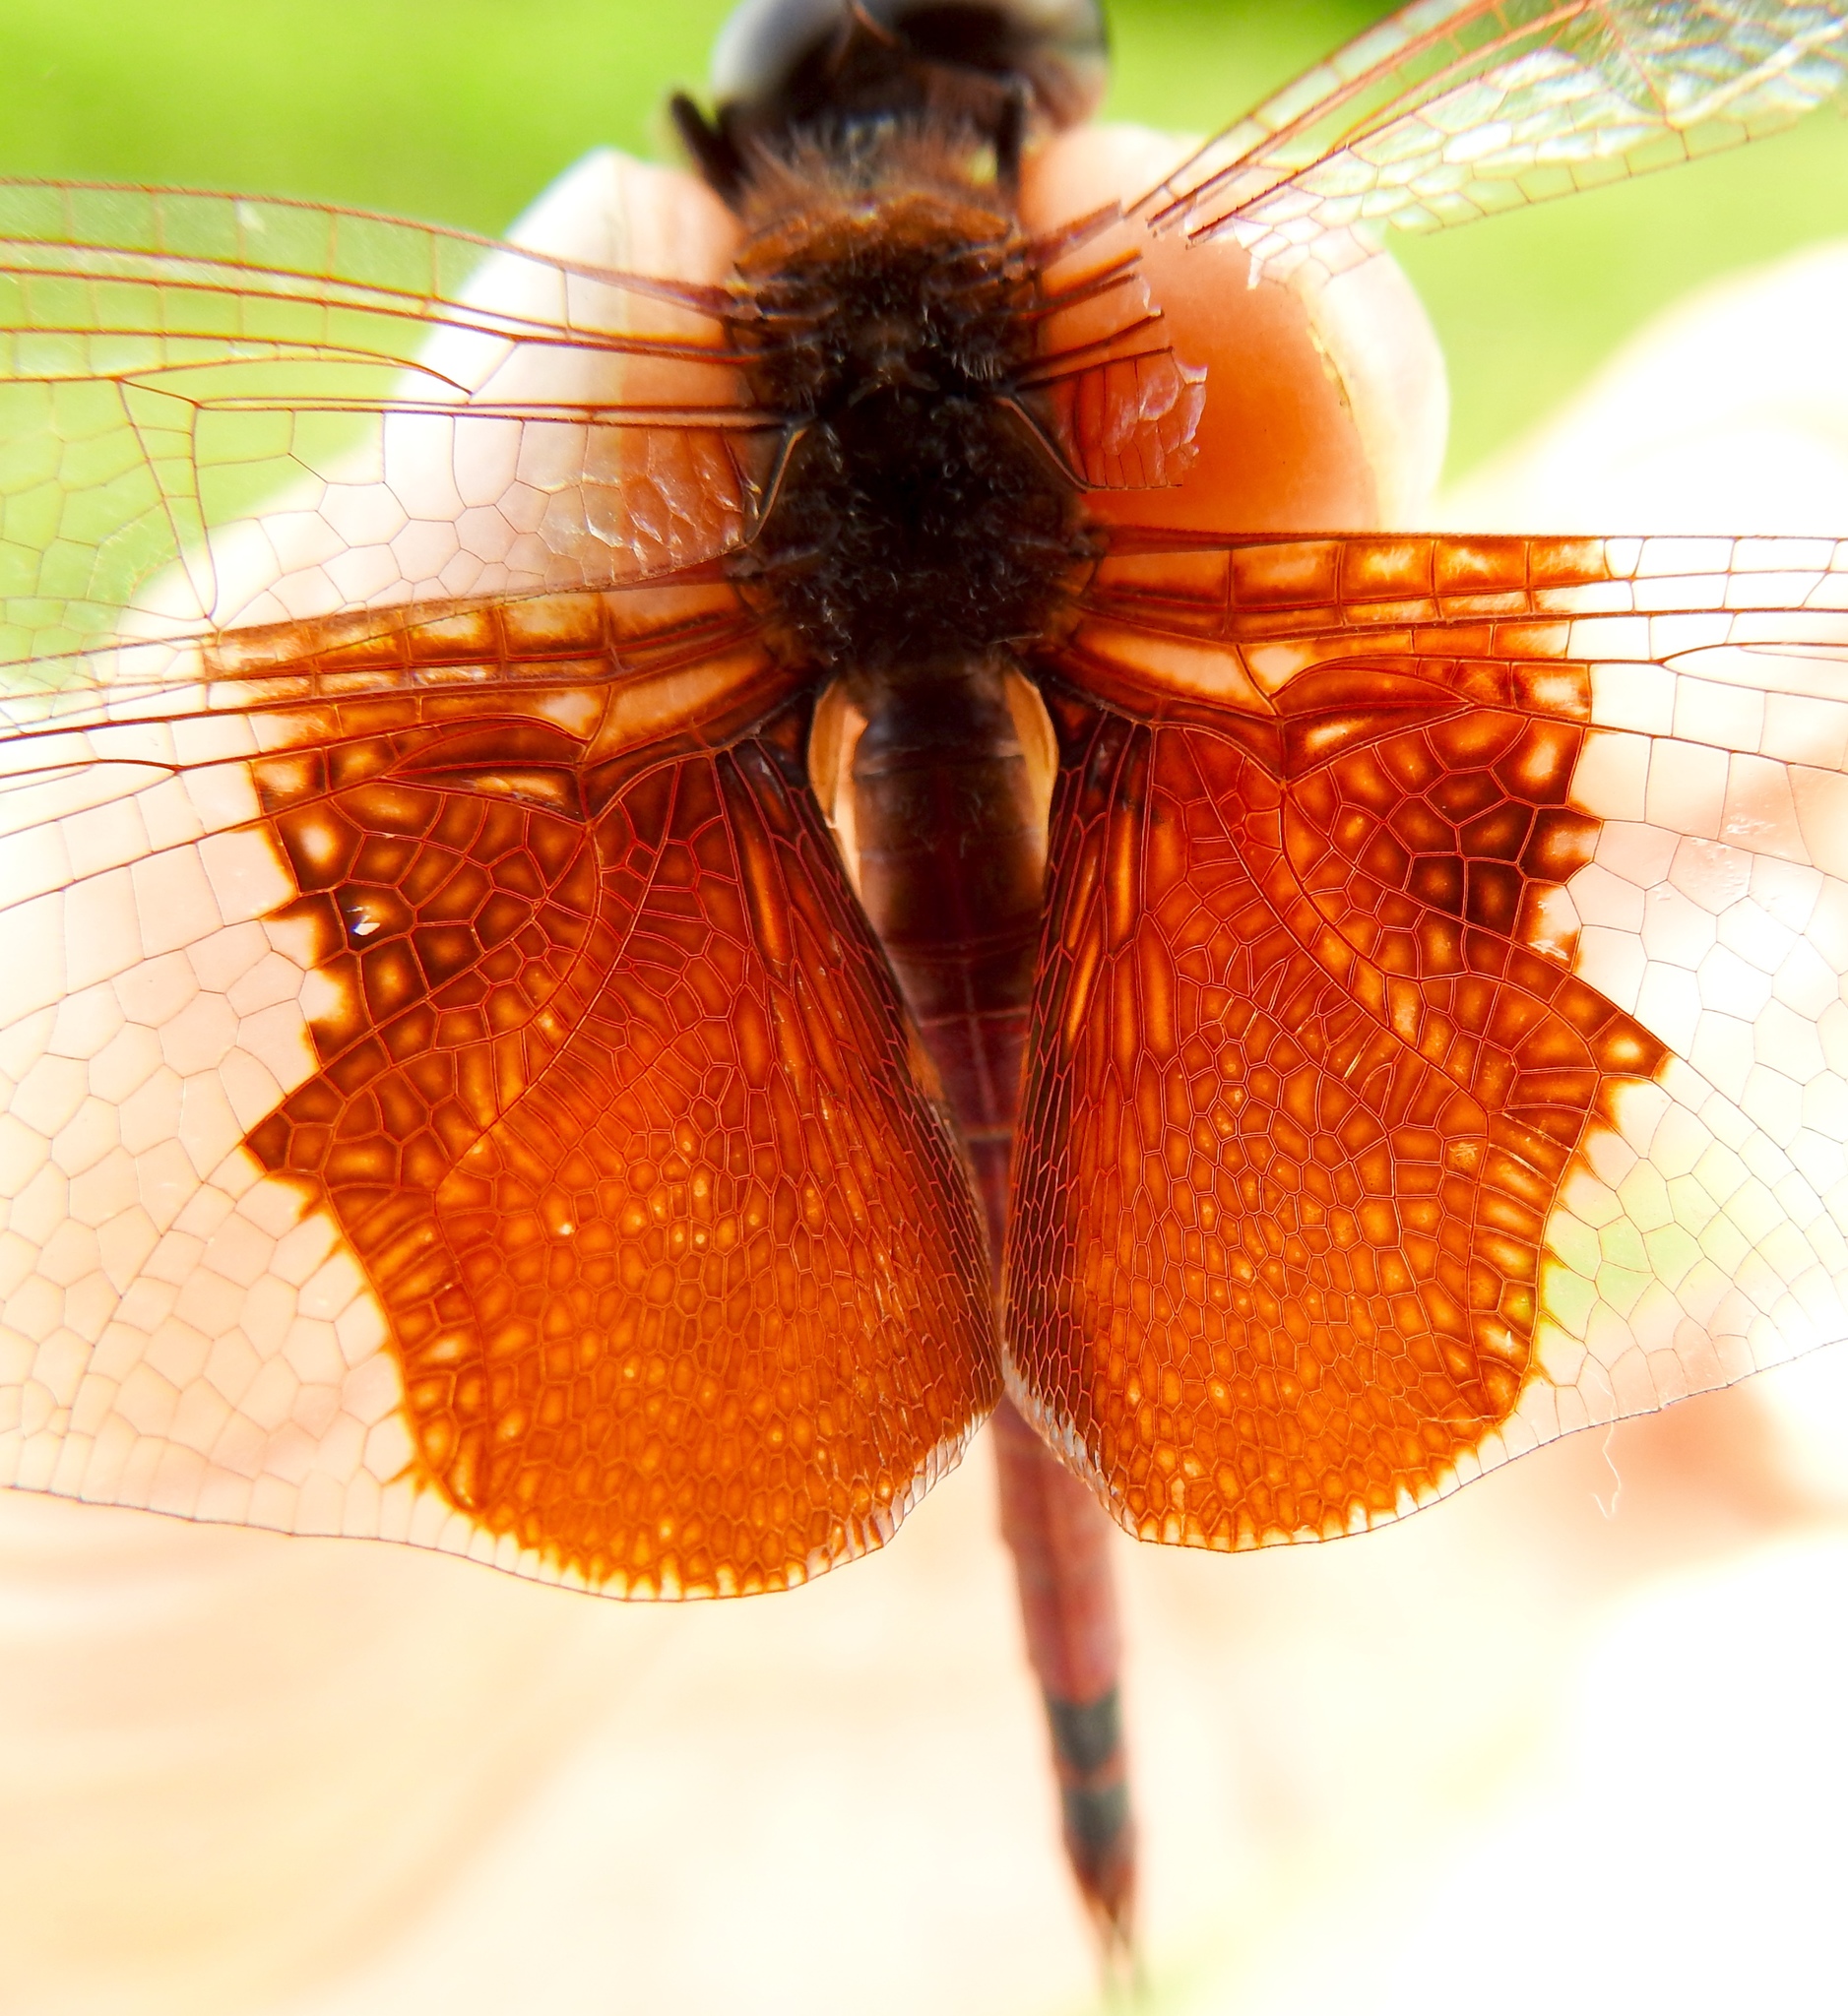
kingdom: Animalia
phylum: Arthropoda
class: Insecta
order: Odonata
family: Libellulidae
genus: Tramea
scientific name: Tramea carolina
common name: Carolina saddlebags
